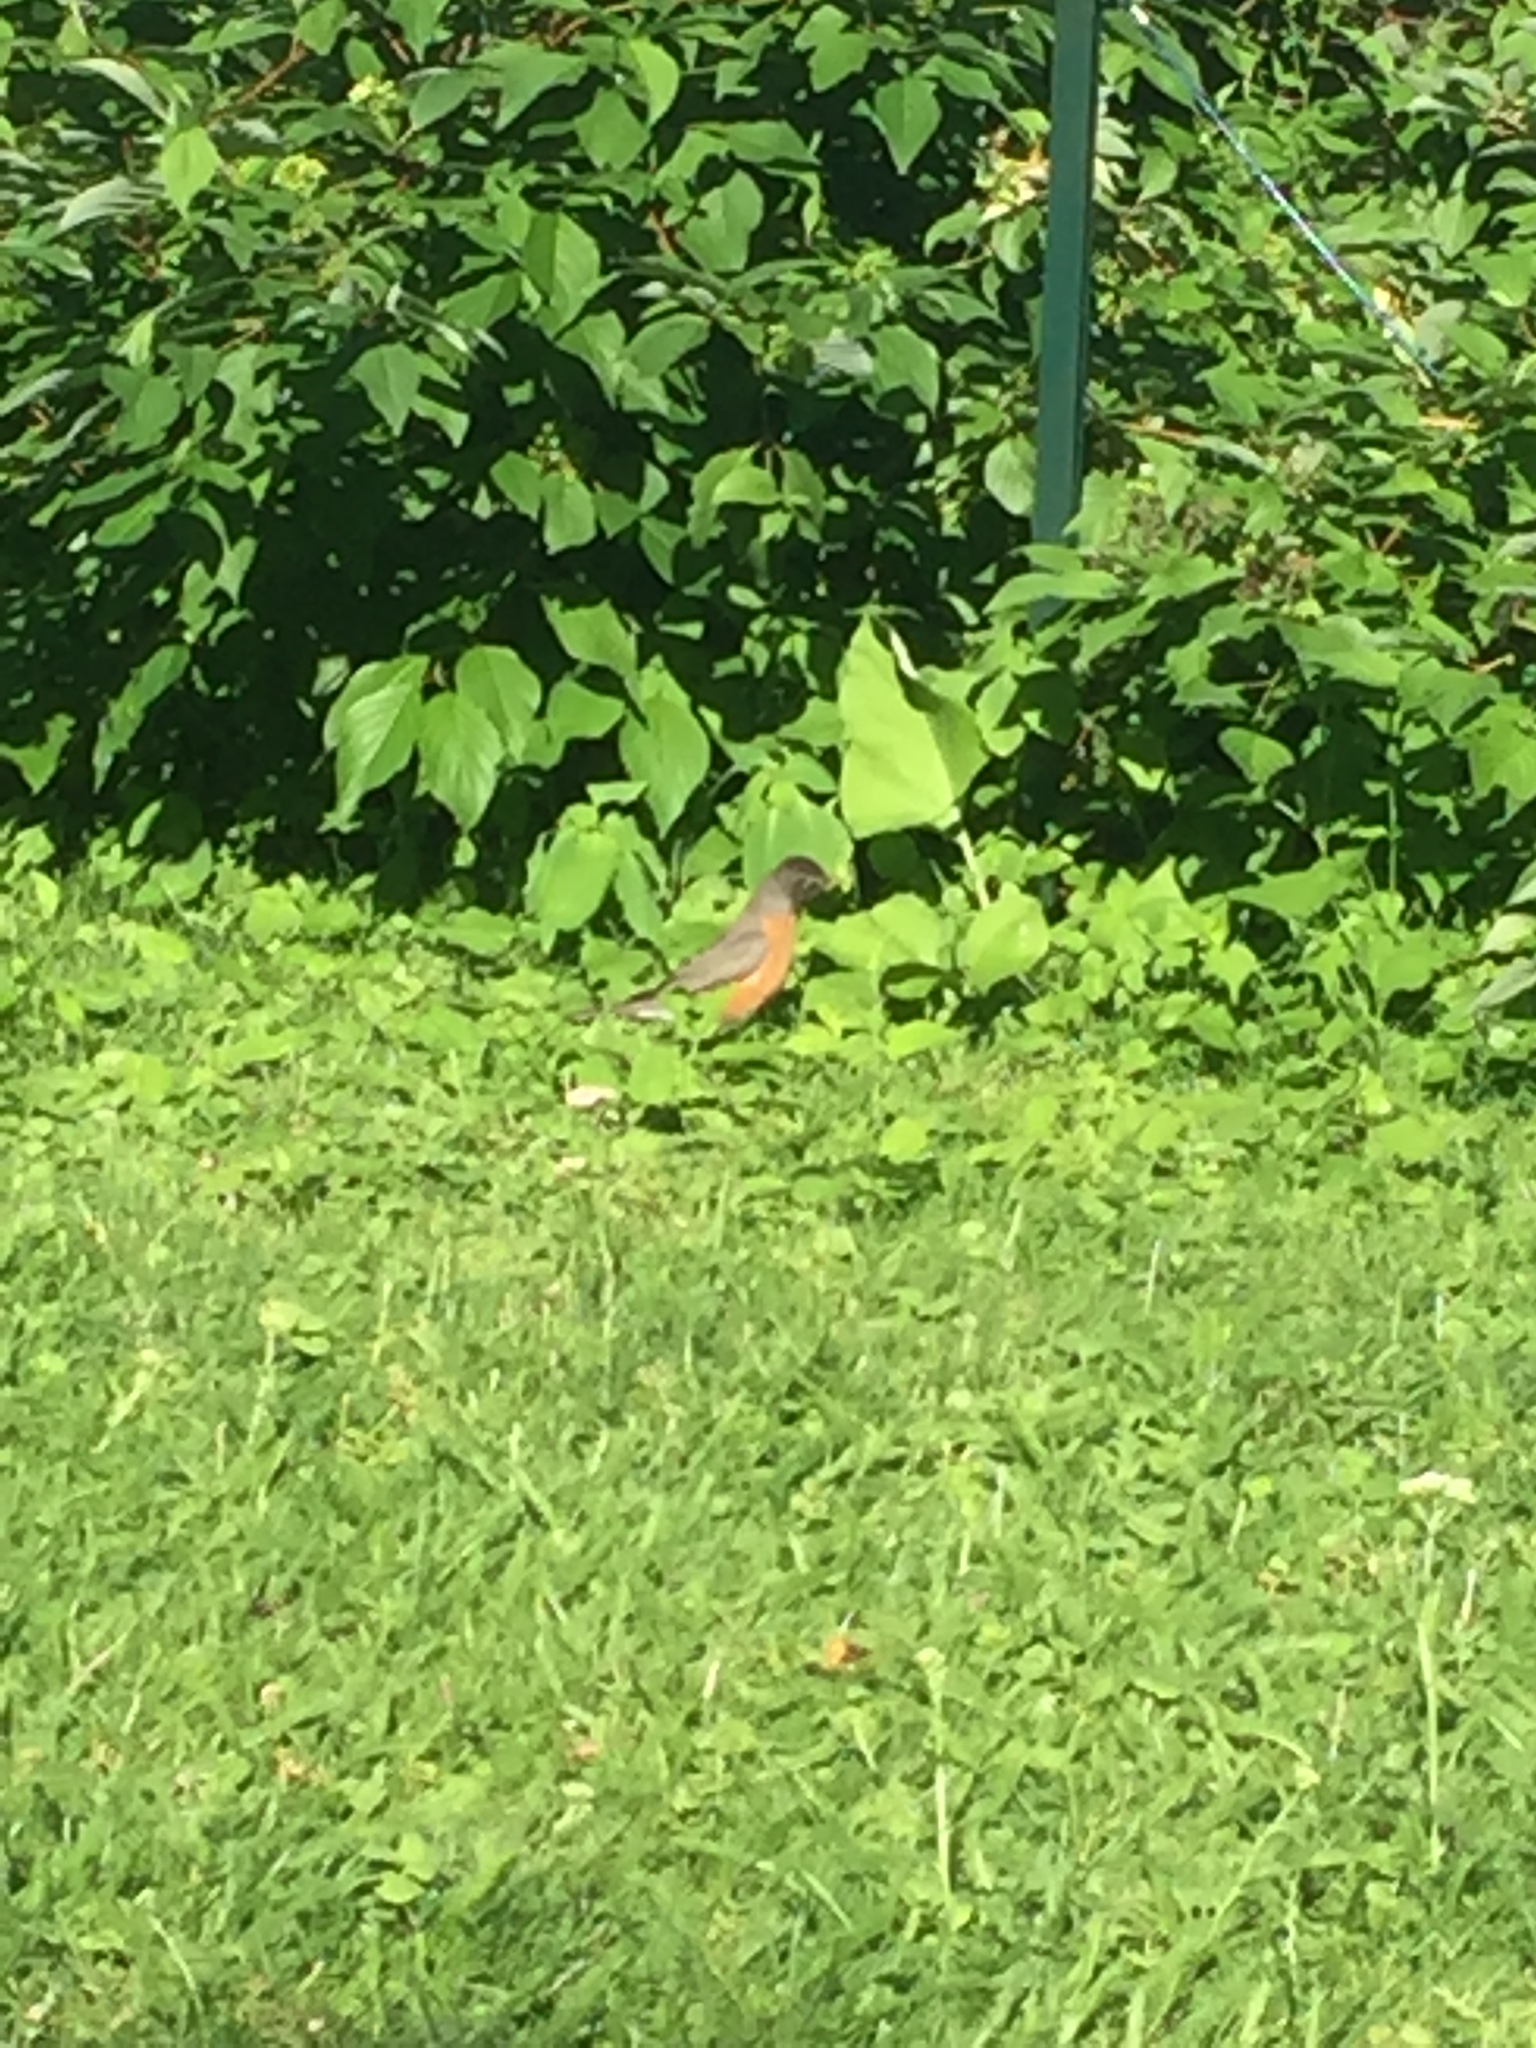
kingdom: Animalia
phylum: Chordata
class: Aves
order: Passeriformes
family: Turdidae
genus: Turdus
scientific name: Turdus migratorius
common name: American robin
